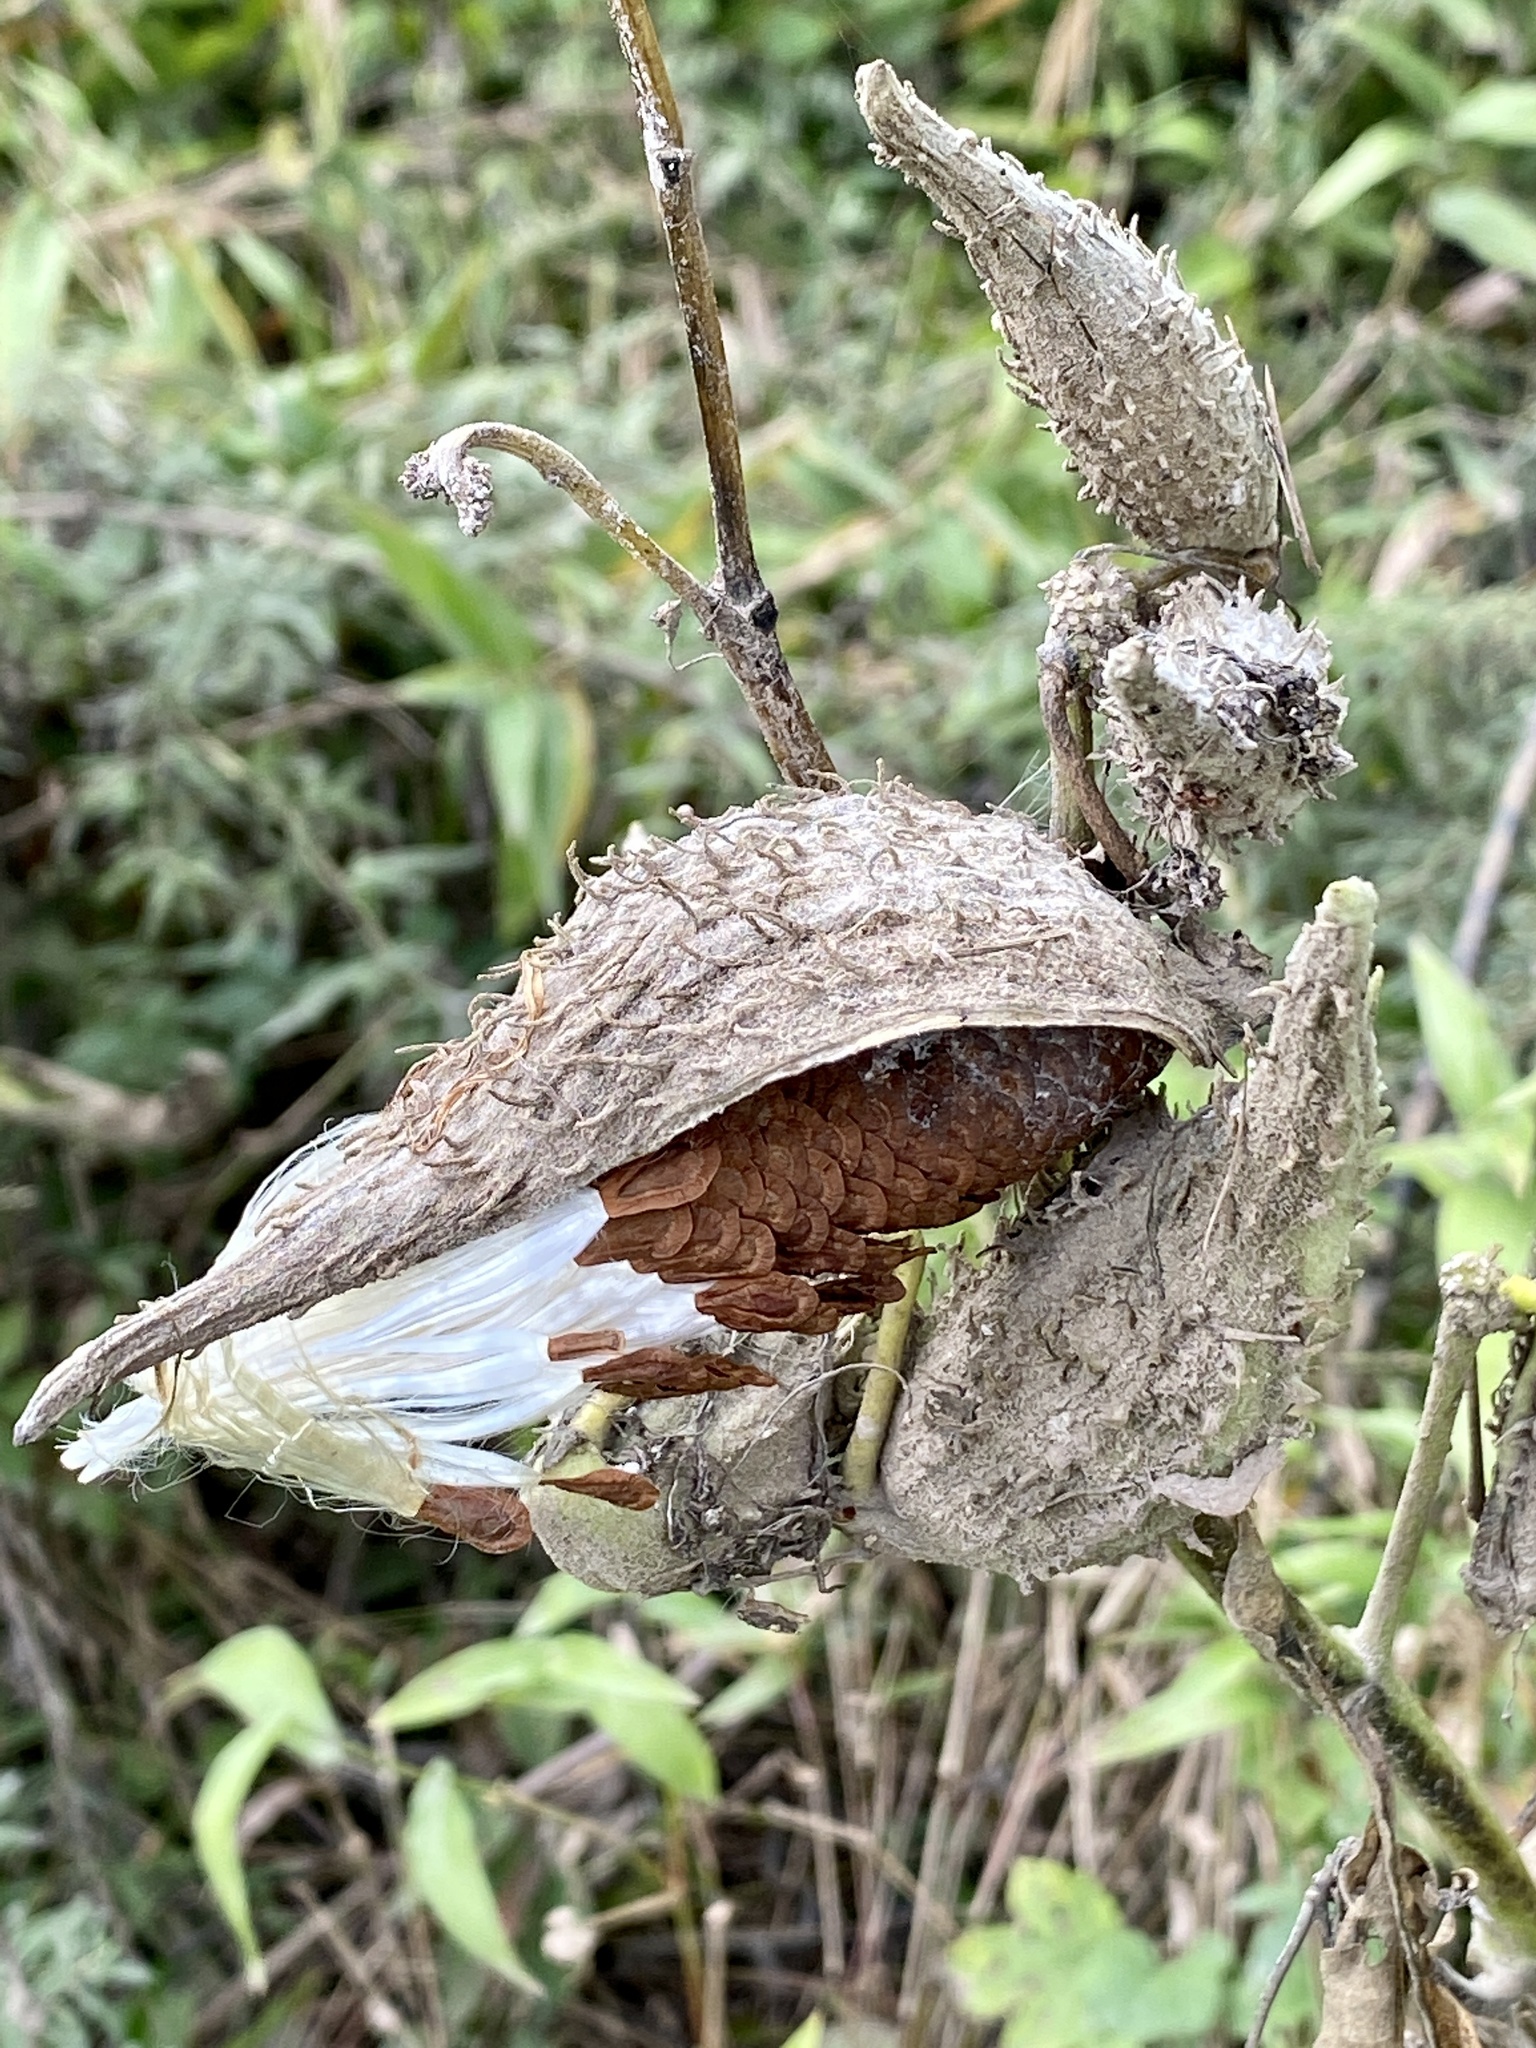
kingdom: Plantae
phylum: Tracheophyta
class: Magnoliopsida
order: Gentianales
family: Apocynaceae
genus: Asclepias
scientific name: Asclepias syriaca
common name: Common milkweed
